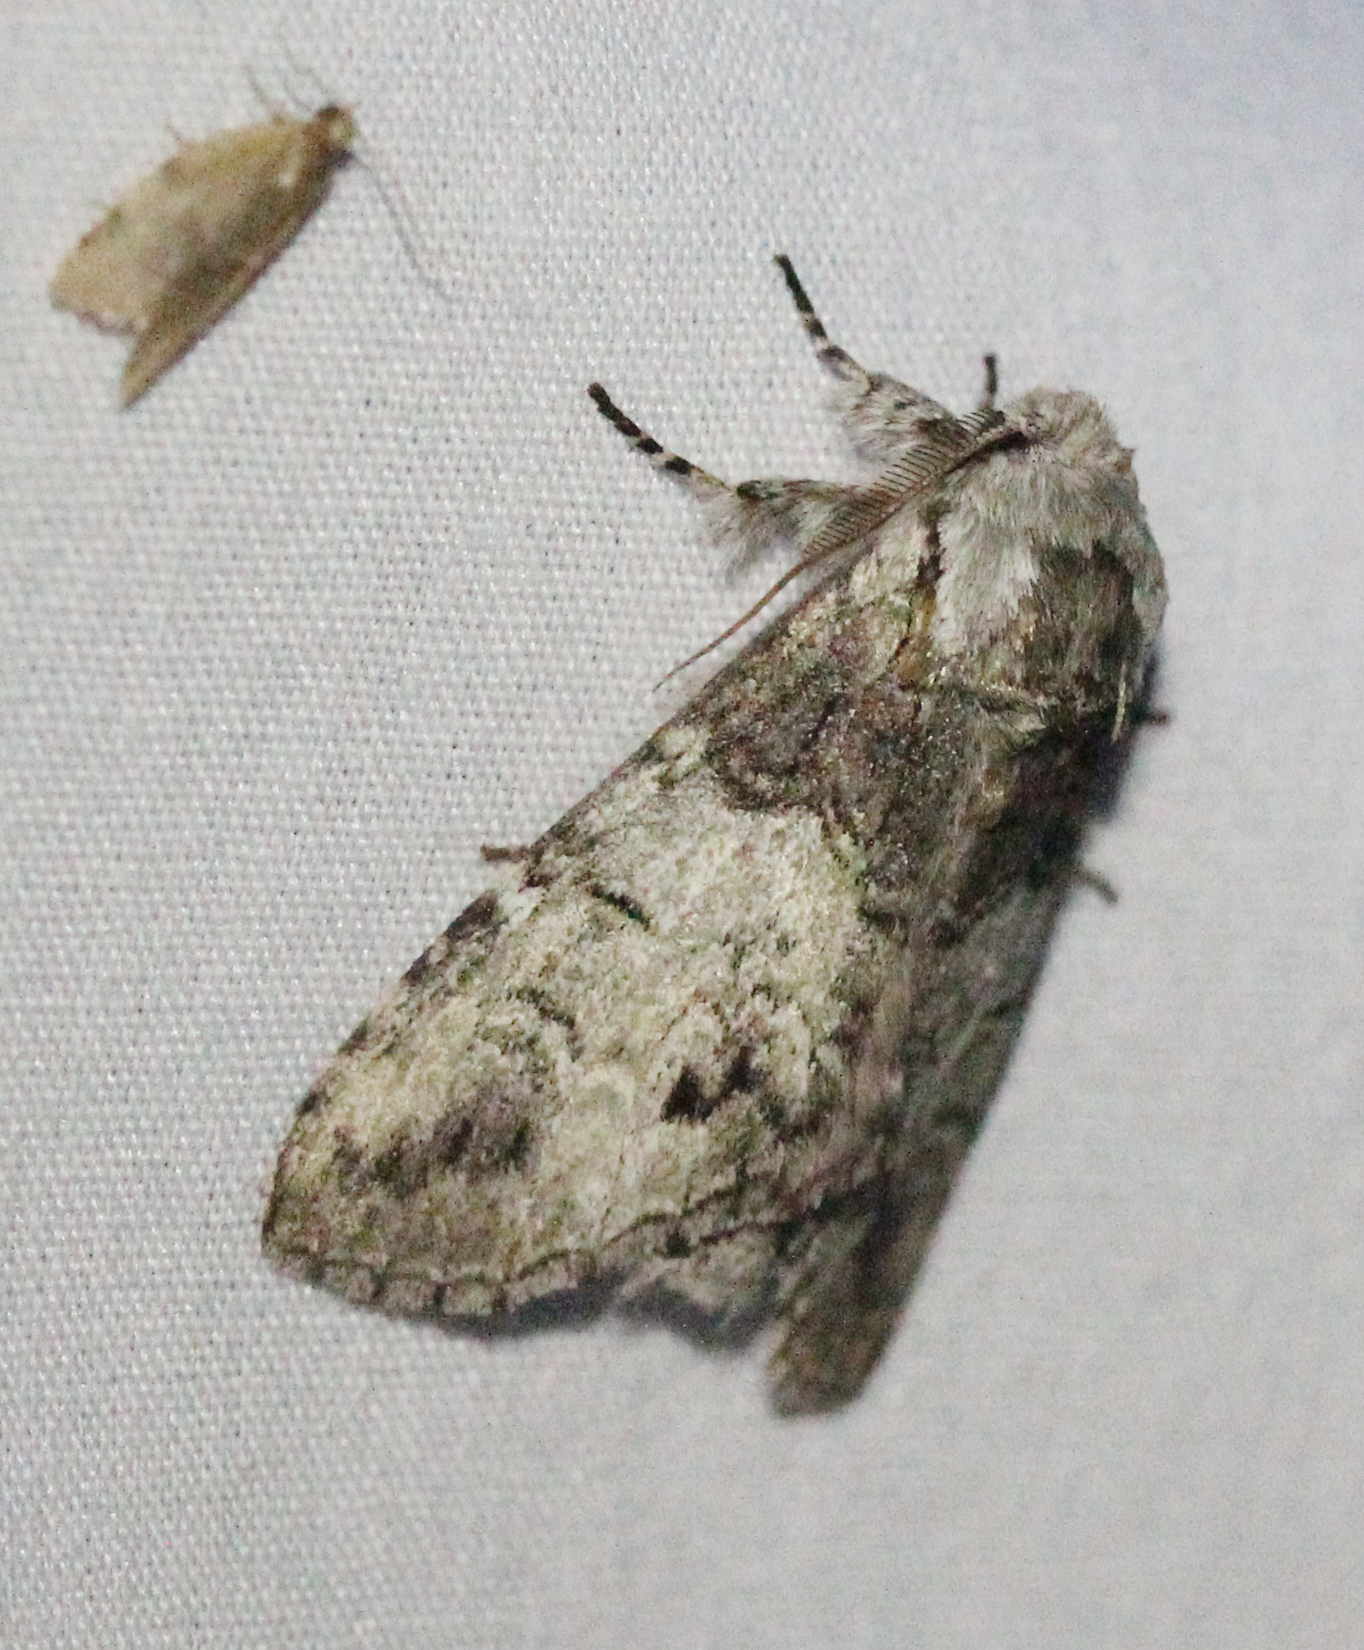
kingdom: Animalia
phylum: Arthropoda
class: Insecta
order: Lepidoptera
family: Notodontidae
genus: Macrurocampa
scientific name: Macrurocampa marthesia
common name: Mottled prominent
